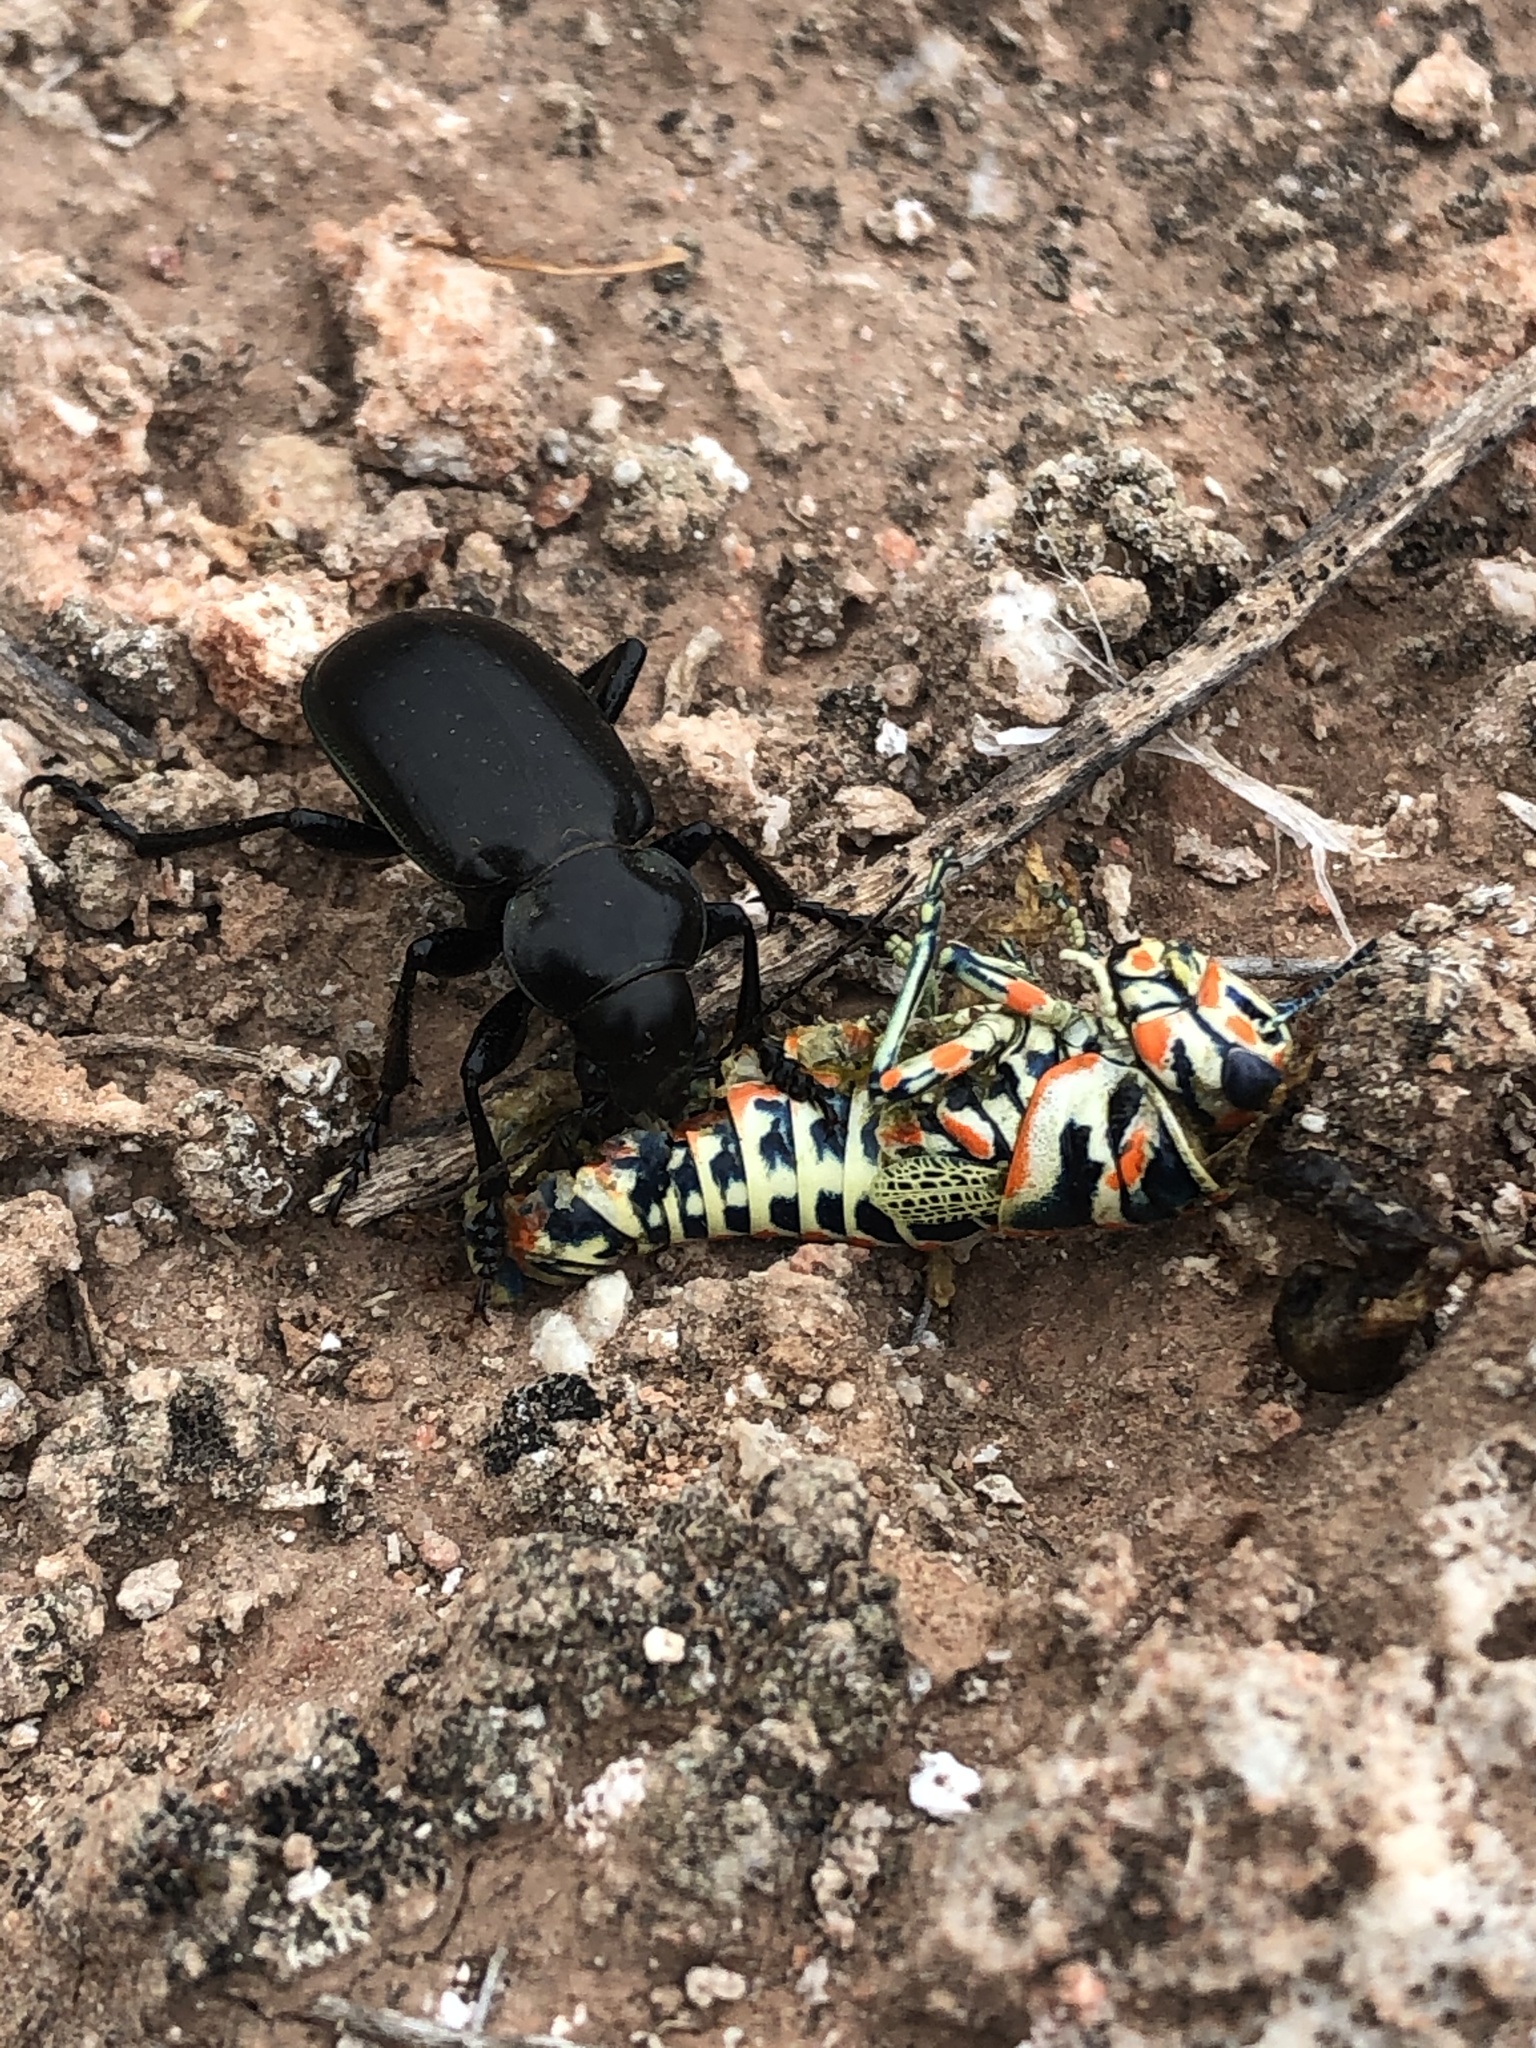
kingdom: Animalia
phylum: Arthropoda
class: Insecta
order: Orthoptera
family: Acrididae
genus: Dactylotum
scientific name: Dactylotum bicolor
